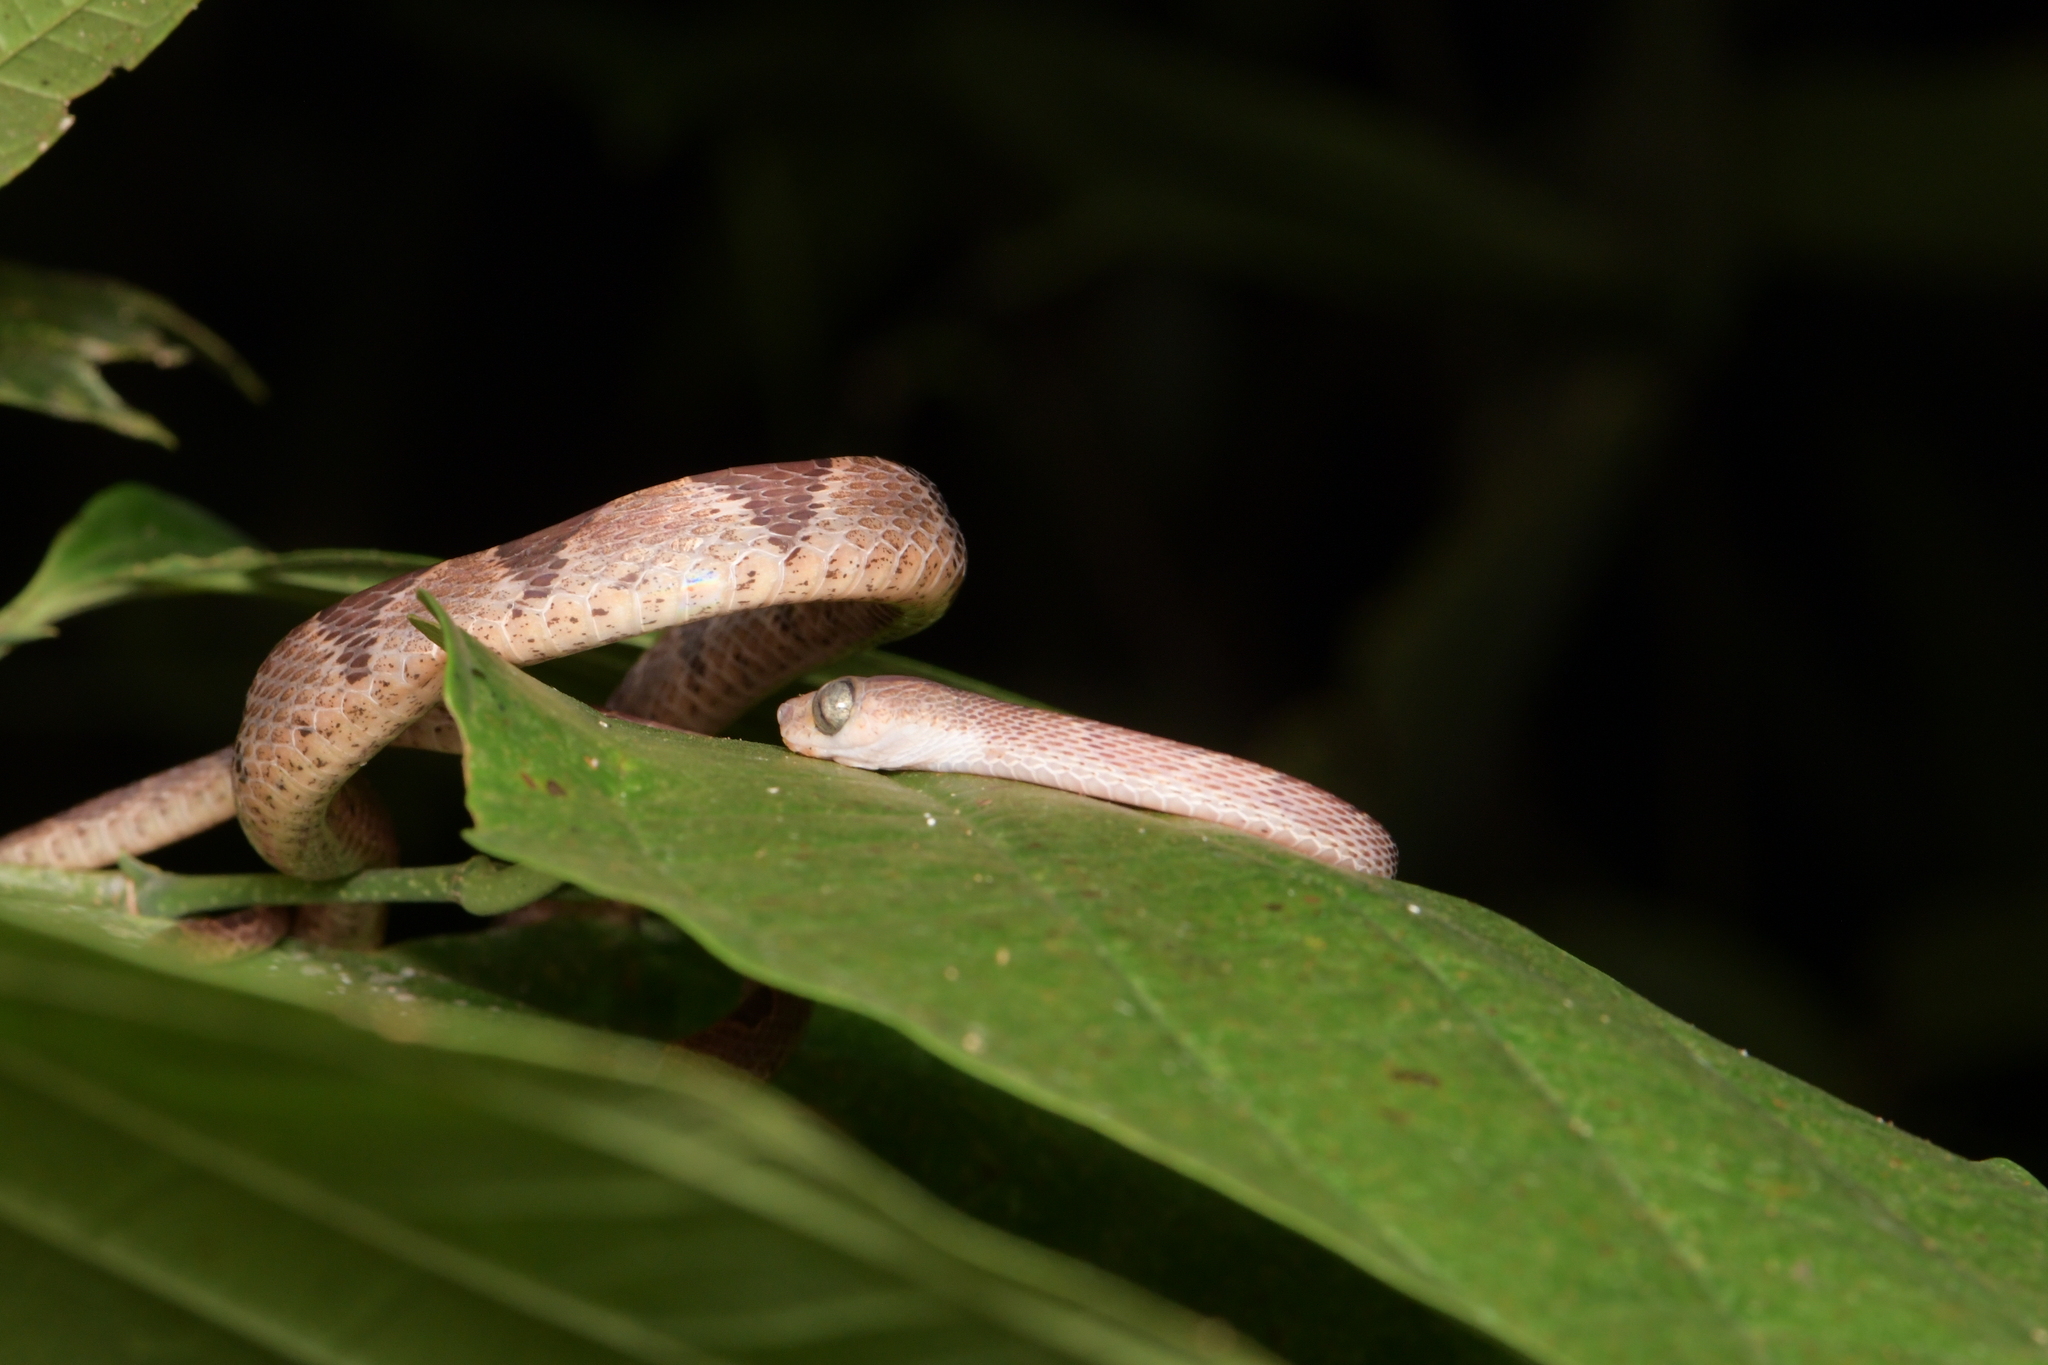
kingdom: Animalia
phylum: Chordata
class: Squamata
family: Colubridae
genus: Imantodes
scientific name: Imantodes cenchoa
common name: Blunthead tree snake
